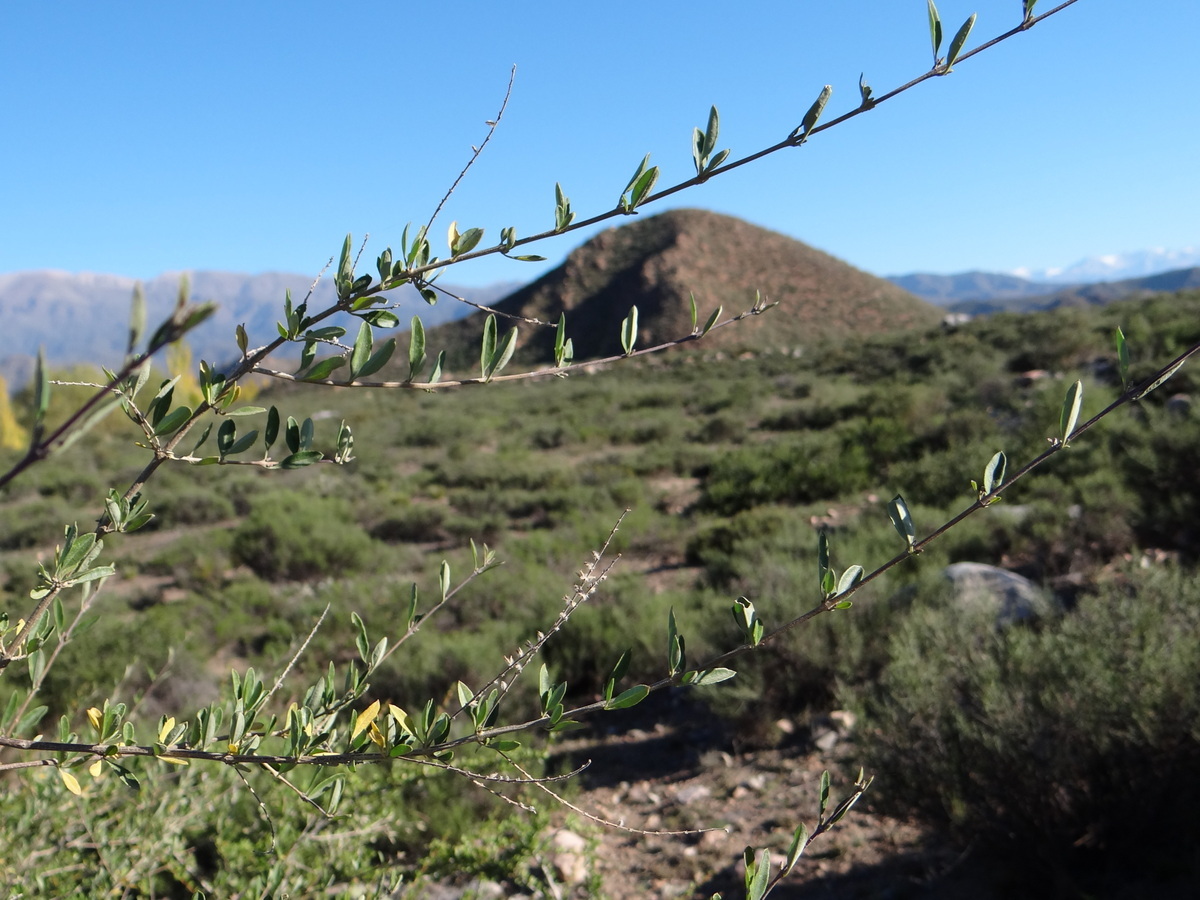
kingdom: Plantae
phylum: Tracheophyta
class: Magnoliopsida
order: Lamiales
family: Verbenaceae
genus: Aloysia
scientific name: Aloysia gratissima
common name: Common bee-brush
